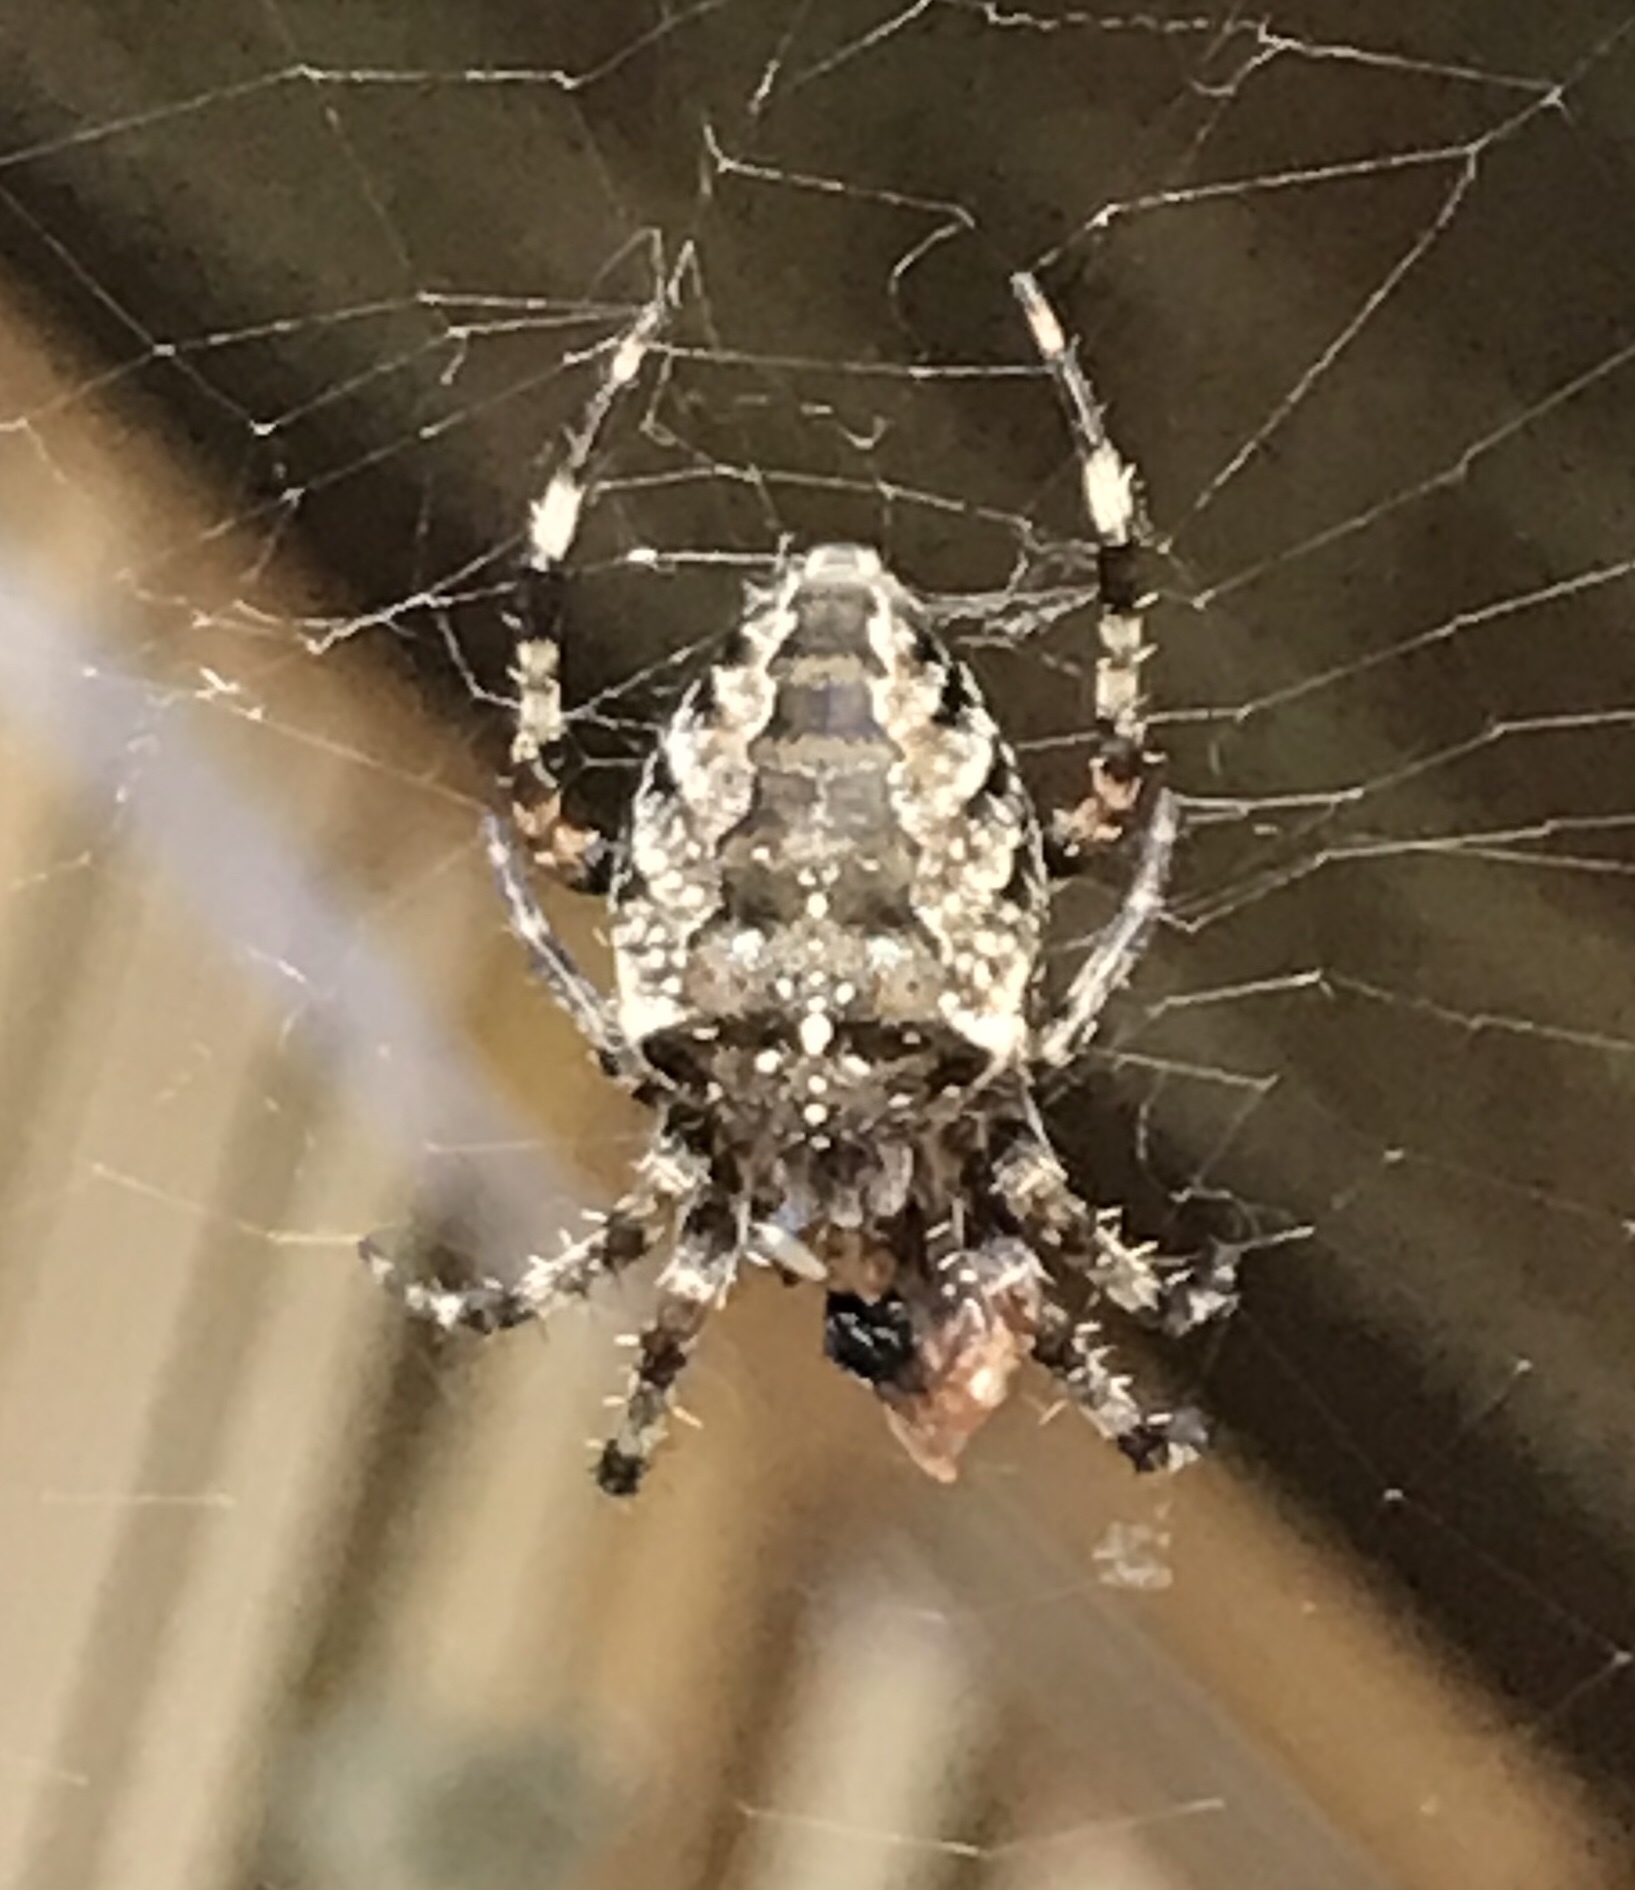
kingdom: Animalia
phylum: Arthropoda
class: Arachnida
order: Araneae
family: Araneidae
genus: Araneus
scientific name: Araneus diadematus
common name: Cross orbweaver
